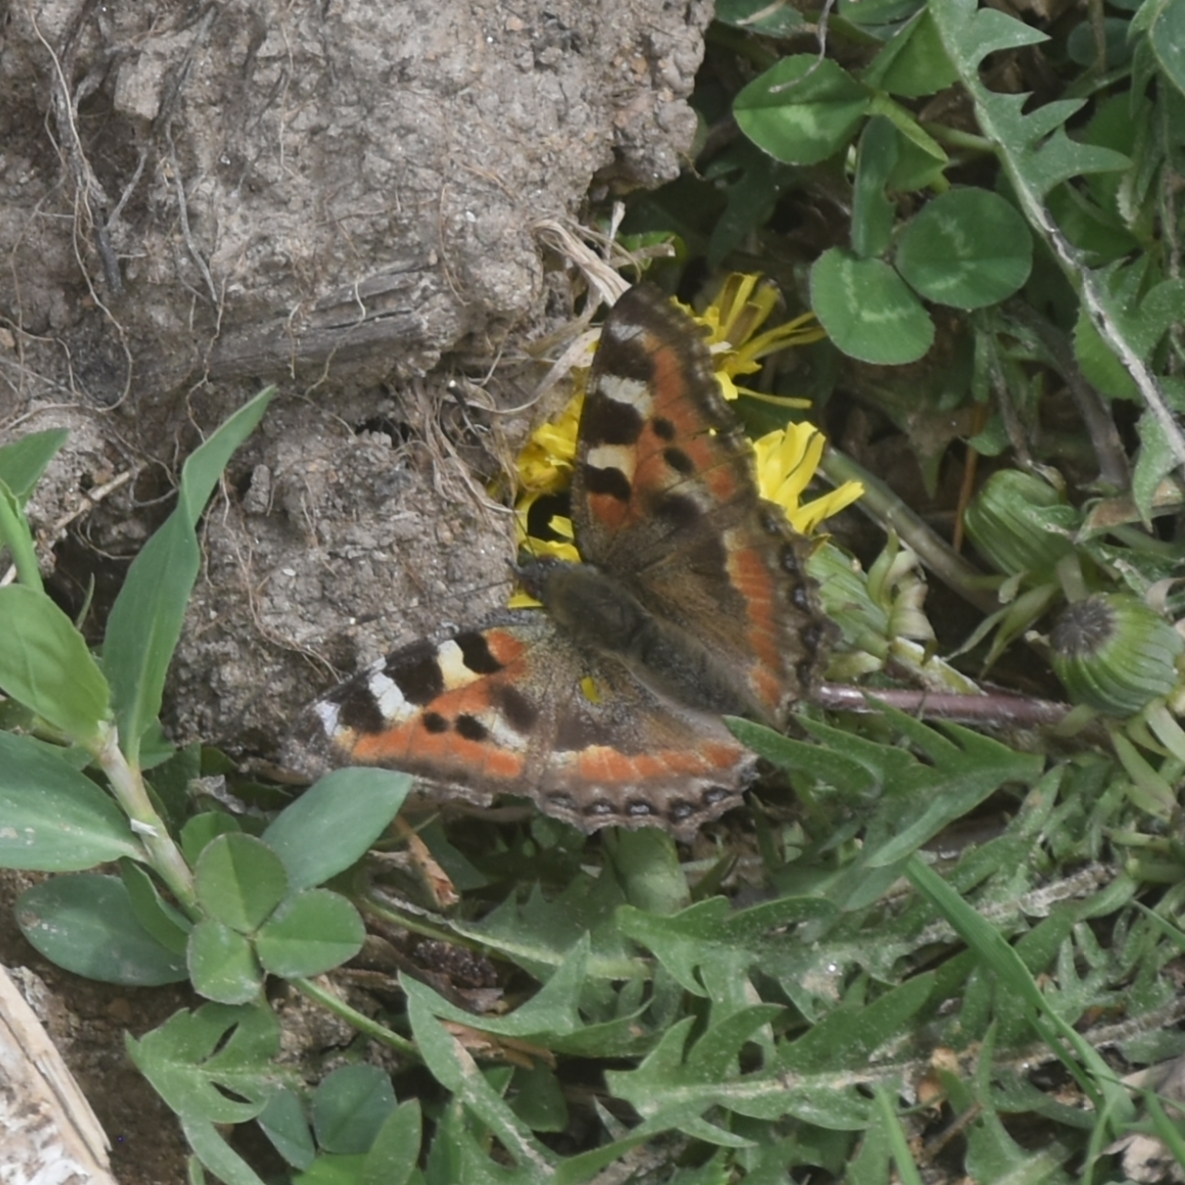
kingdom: Animalia
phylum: Arthropoda
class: Insecta
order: Lepidoptera
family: Nymphalidae
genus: Aglais
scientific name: Aglais caschmirensis
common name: Indian tortoiseshell
